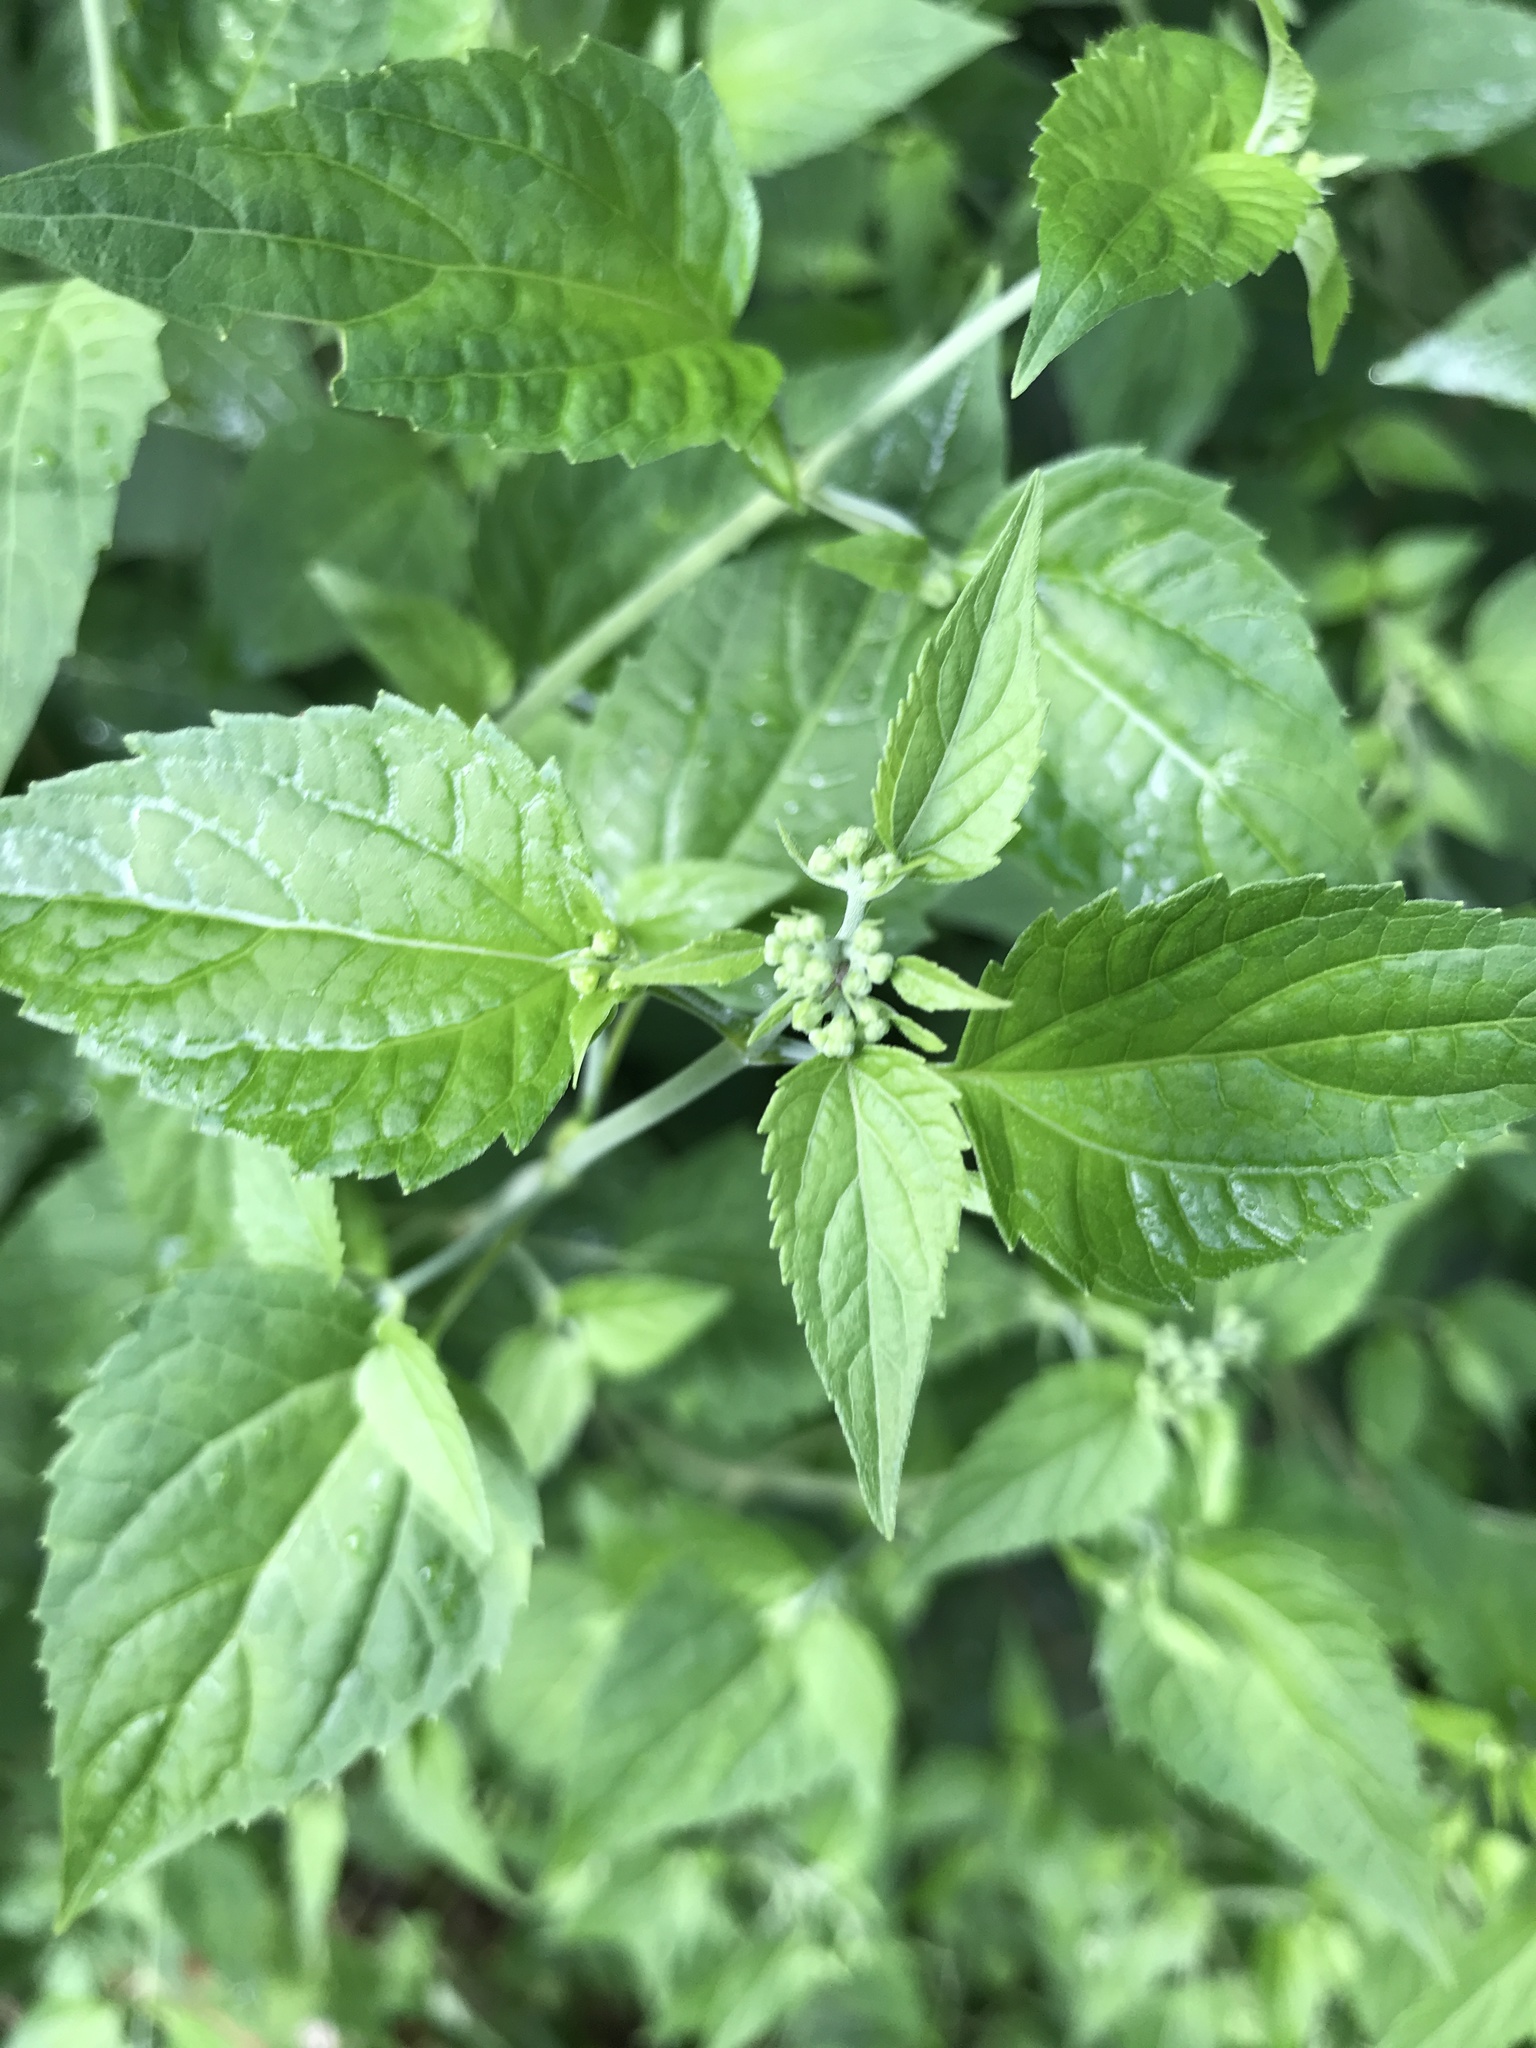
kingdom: Plantae
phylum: Tracheophyta
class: Magnoliopsida
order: Asterales
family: Asteraceae
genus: Ageratina
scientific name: Ageratina altissima
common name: White snakeroot
